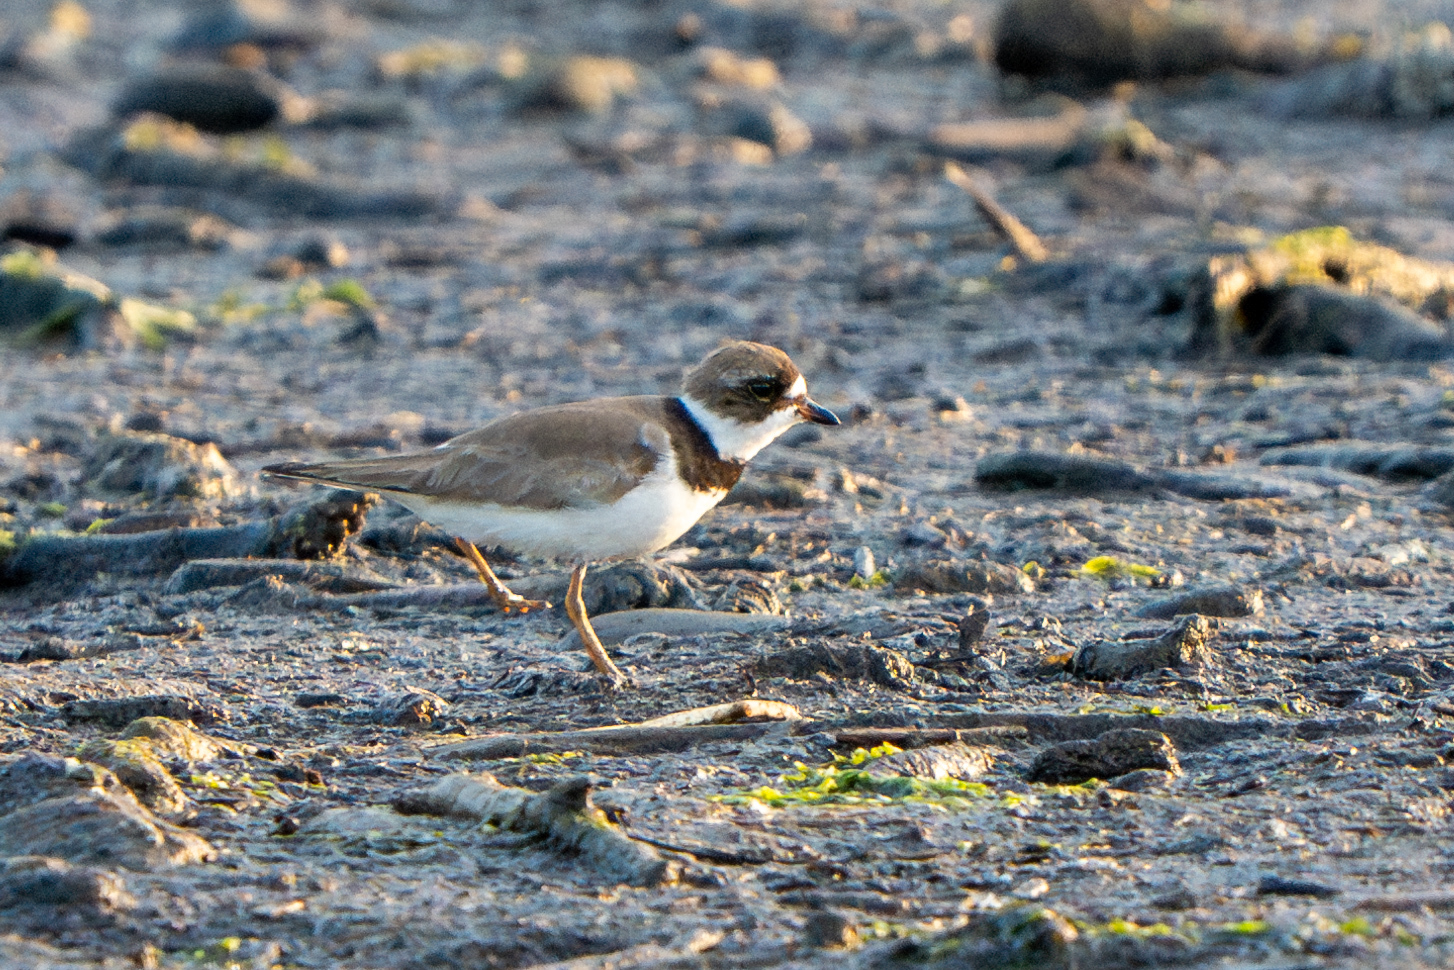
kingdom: Animalia
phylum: Chordata
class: Aves
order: Charadriiformes
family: Charadriidae
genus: Charadrius
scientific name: Charadrius semipalmatus
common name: Semipalmated plover
